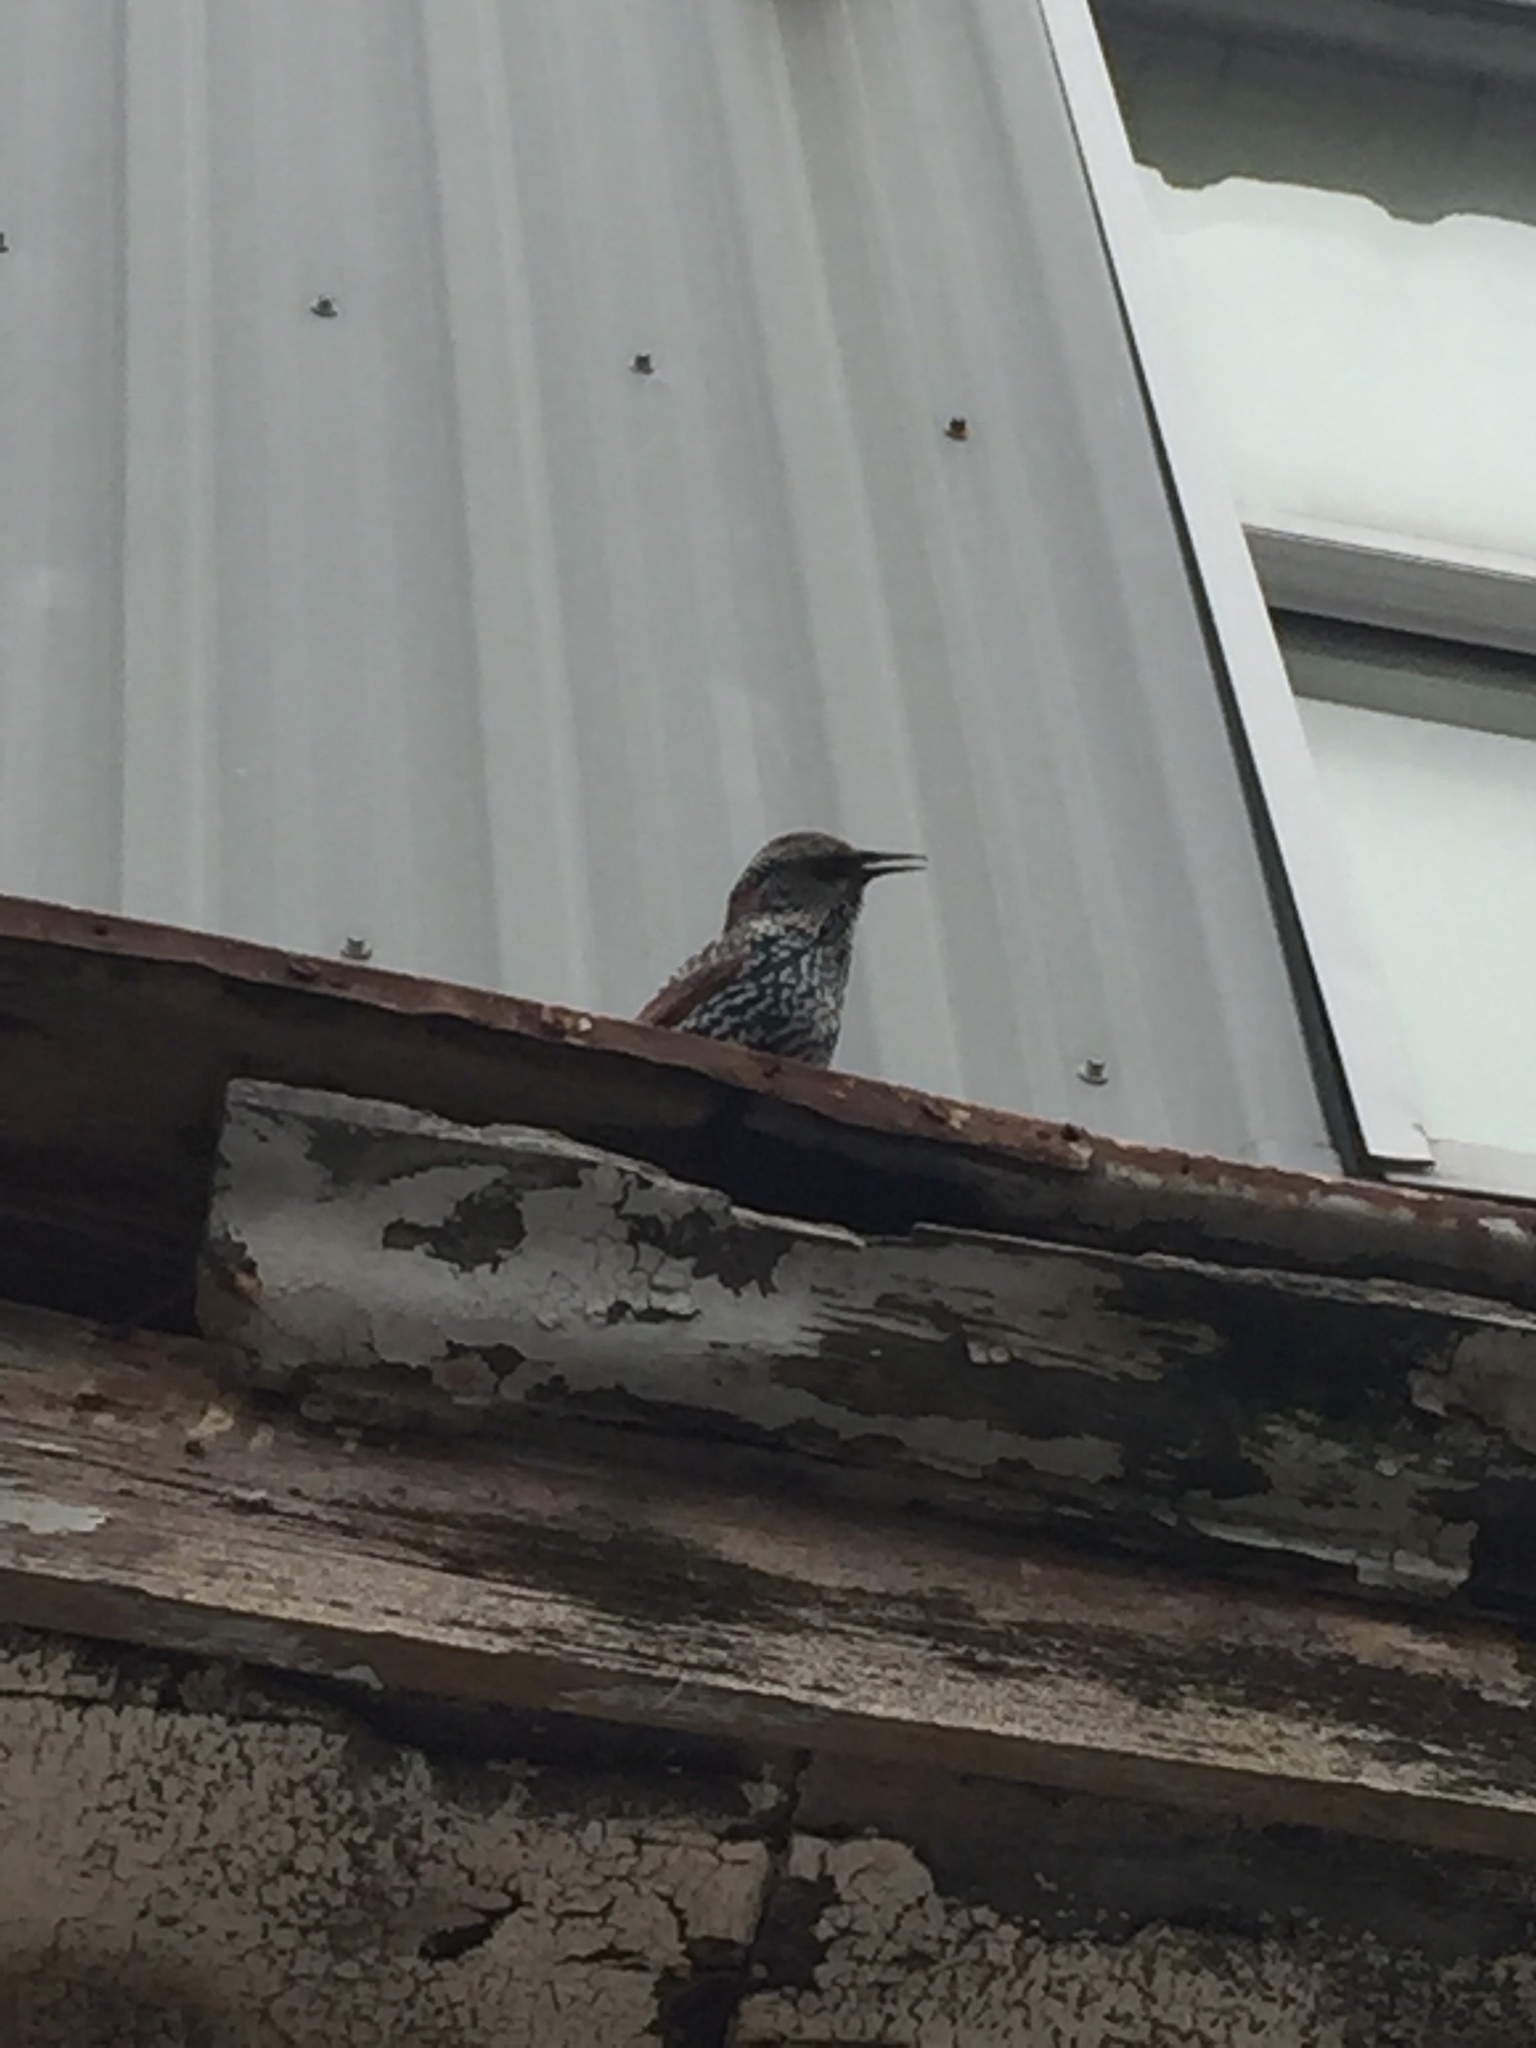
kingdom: Animalia
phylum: Chordata
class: Aves
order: Passeriformes
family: Sturnidae
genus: Sturnus
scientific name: Sturnus vulgaris
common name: Common starling
